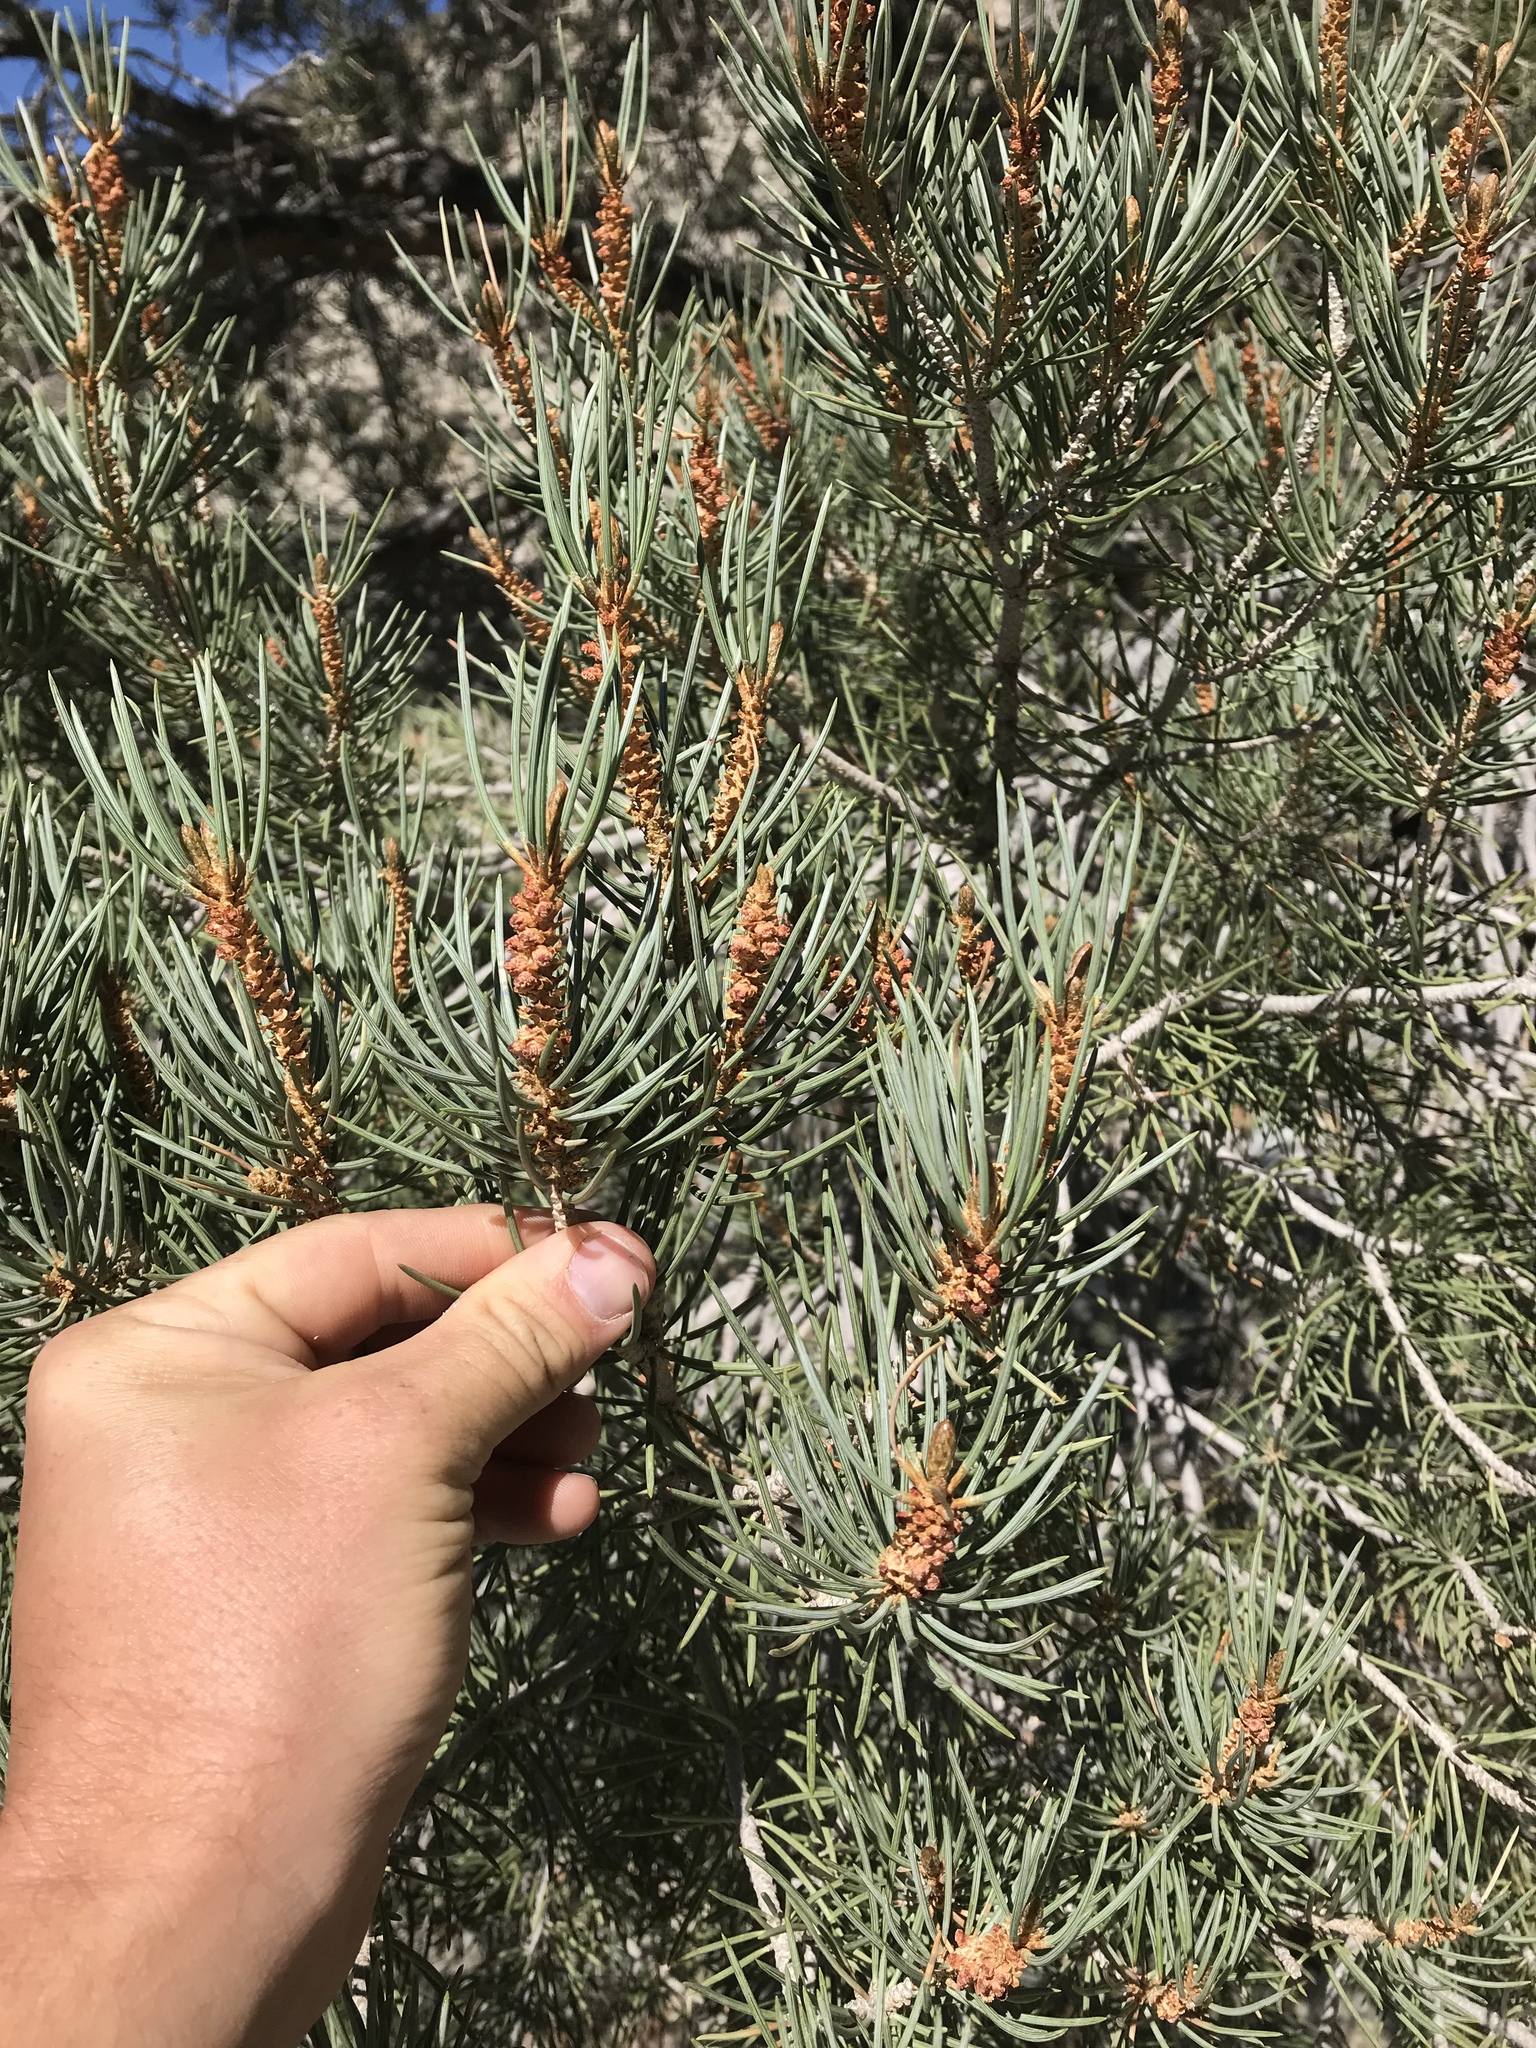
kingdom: Plantae
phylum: Tracheophyta
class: Pinopsida
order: Pinales
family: Pinaceae
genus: Pinus
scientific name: Pinus monophylla
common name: One-leaved nut pine
